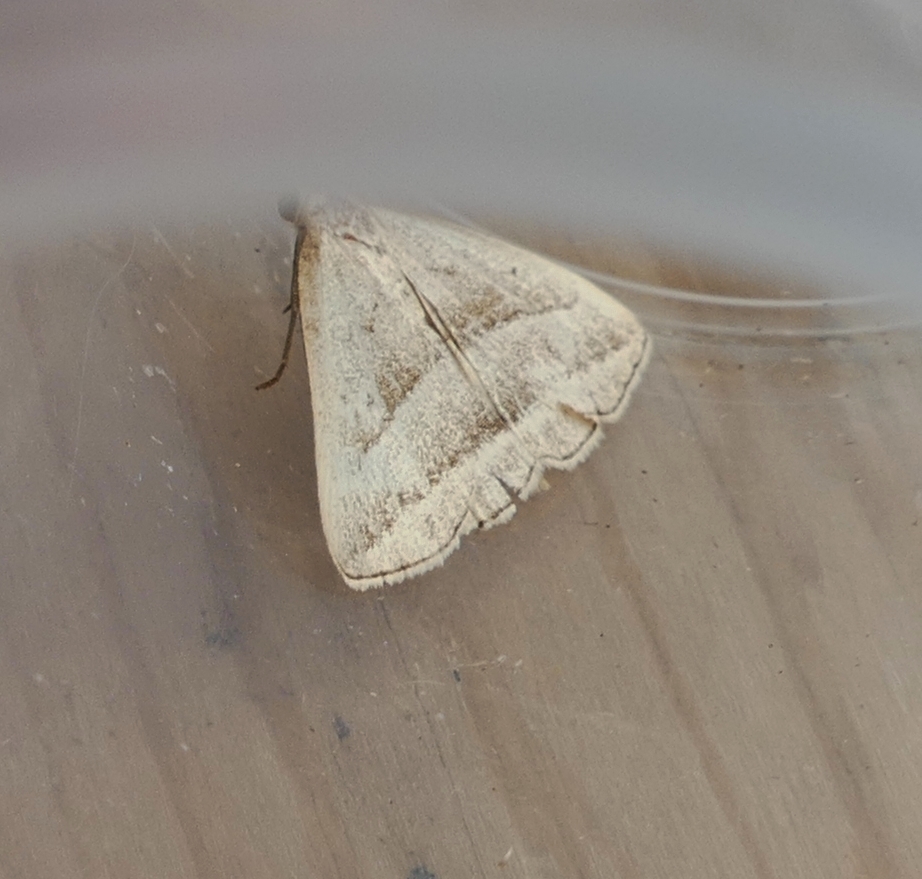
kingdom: Animalia
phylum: Arthropoda
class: Insecta
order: Lepidoptera
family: Erebidae
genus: Macrochilo
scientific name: Macrochilo absorptalis
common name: Slant-lined owlet
